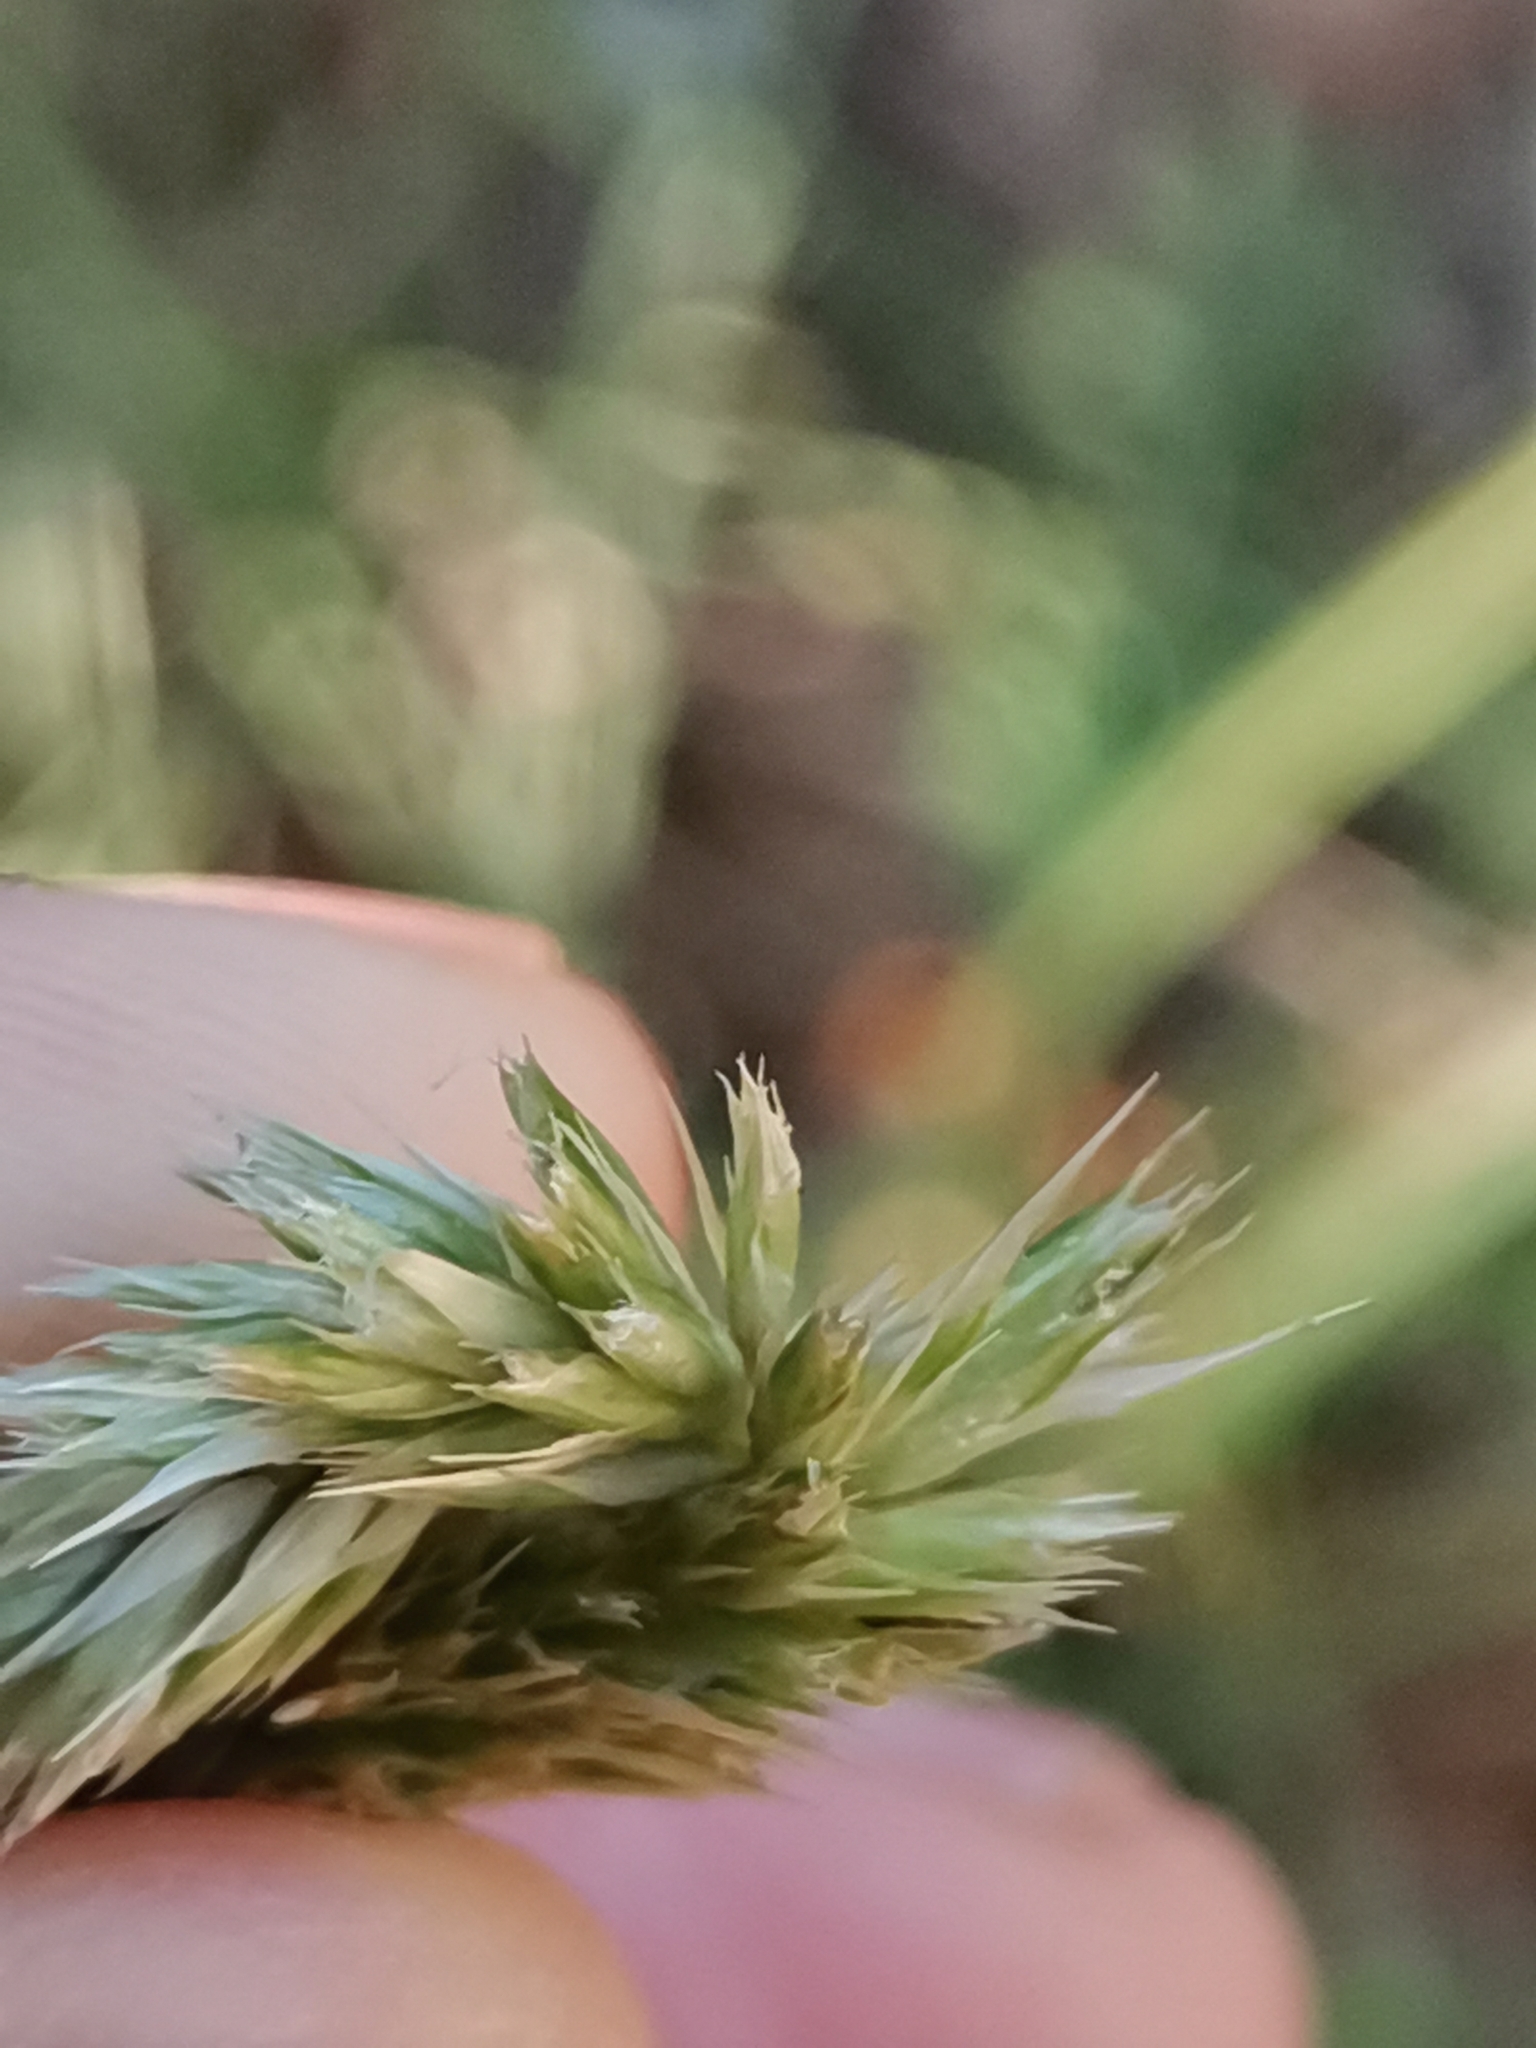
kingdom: Plantae
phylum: Tracheophyta
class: Liliopsida
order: Poales
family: Poaceae
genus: Sesleria
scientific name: Sesleria autumnalis
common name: Autumn moor grass
